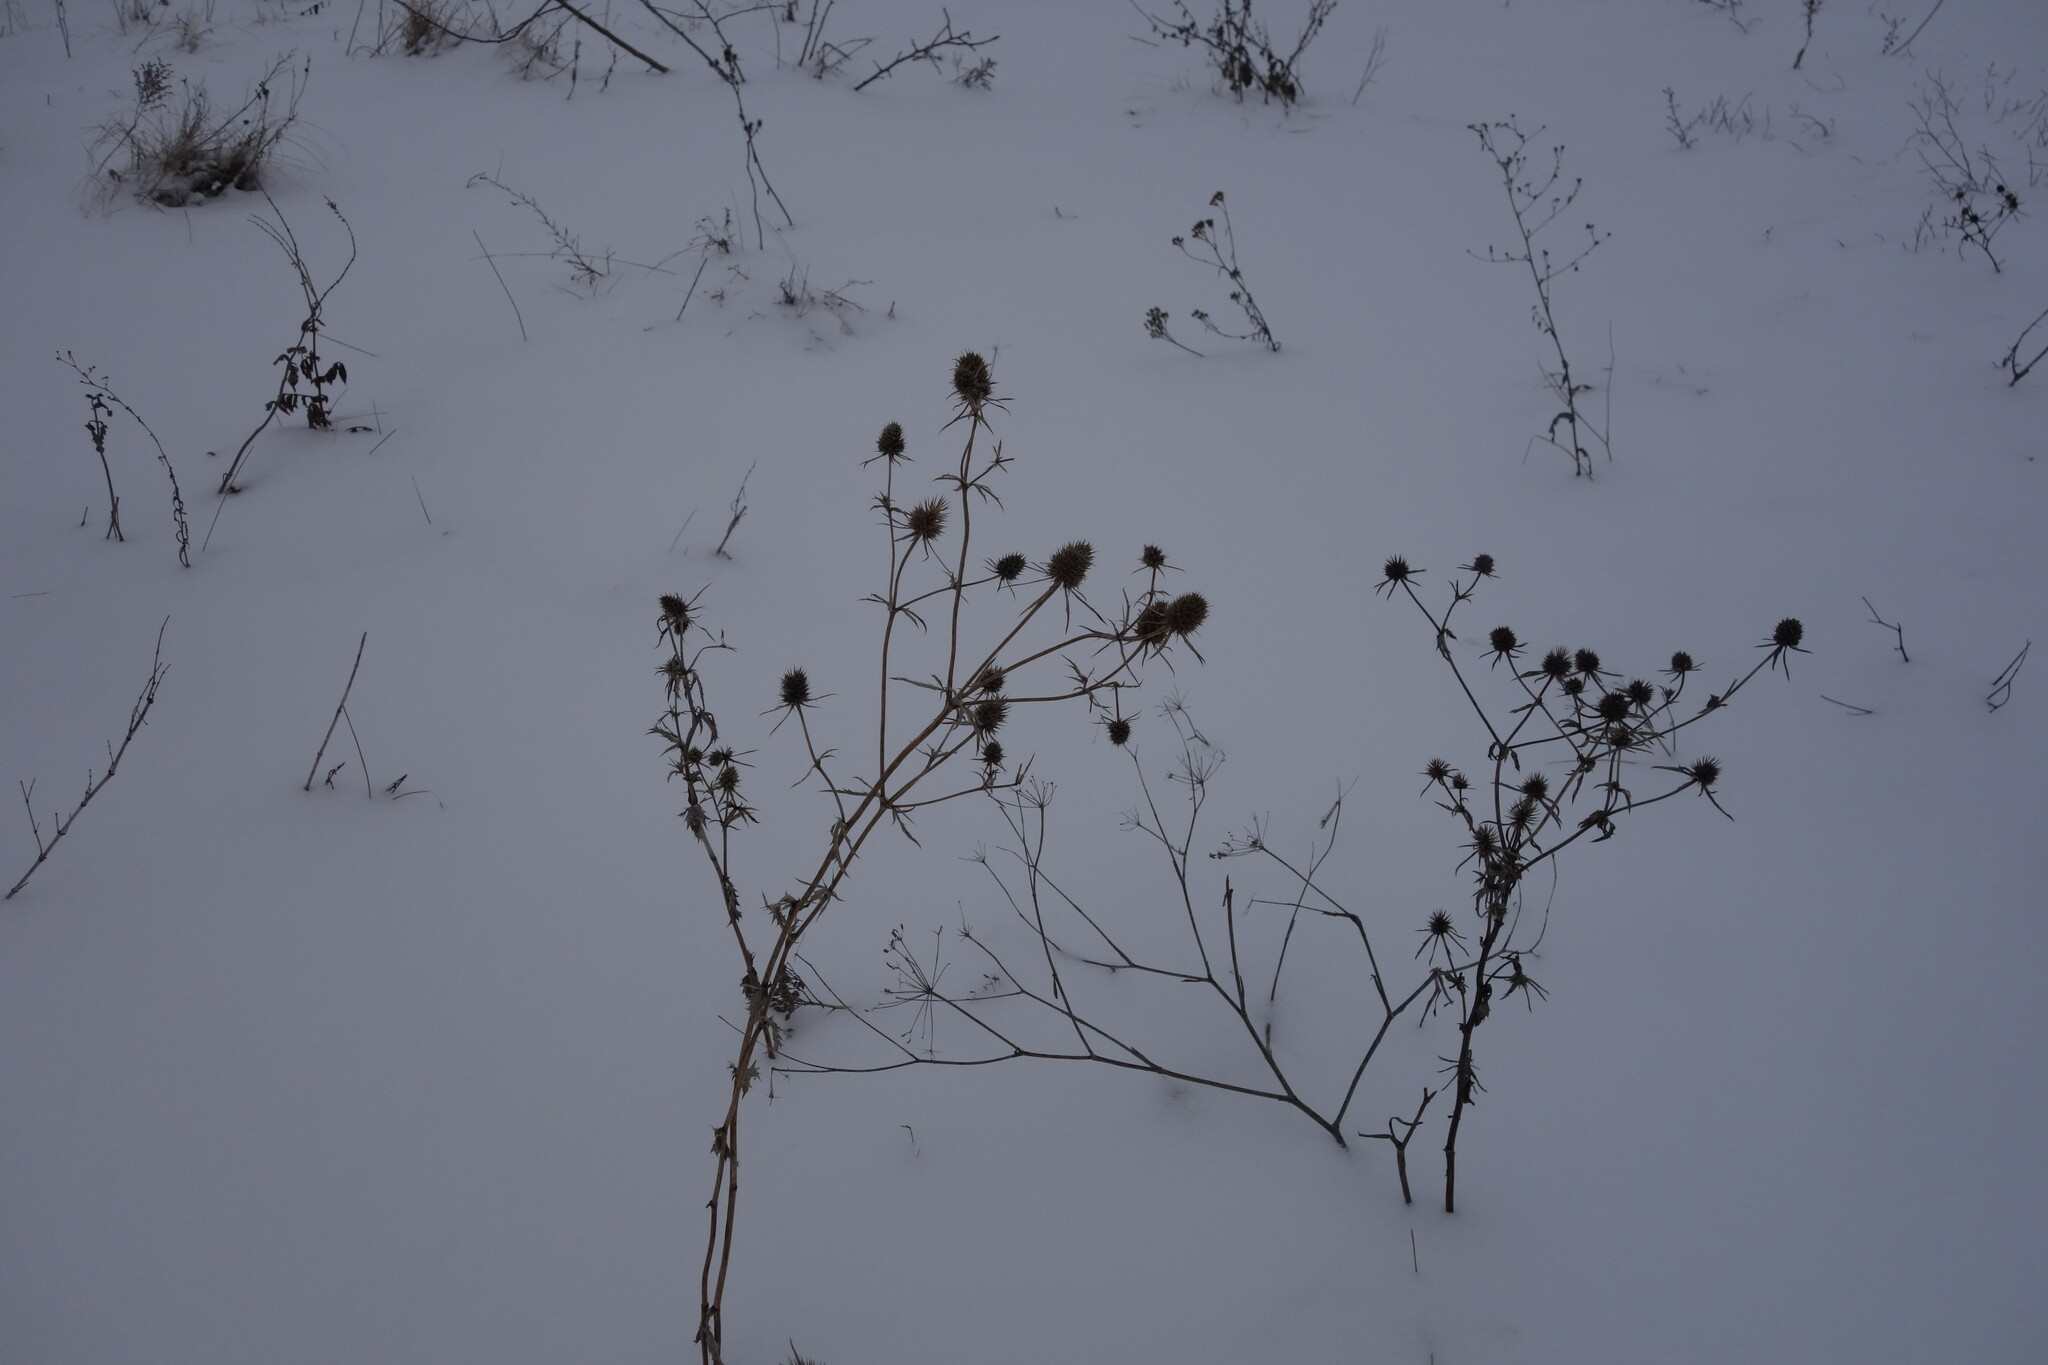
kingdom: Plantae
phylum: Tracheophyta
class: Magnoliopsida
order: Apiales
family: Apiaceae
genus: Eryngium
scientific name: Eryngium planum
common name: Blue eryngo
